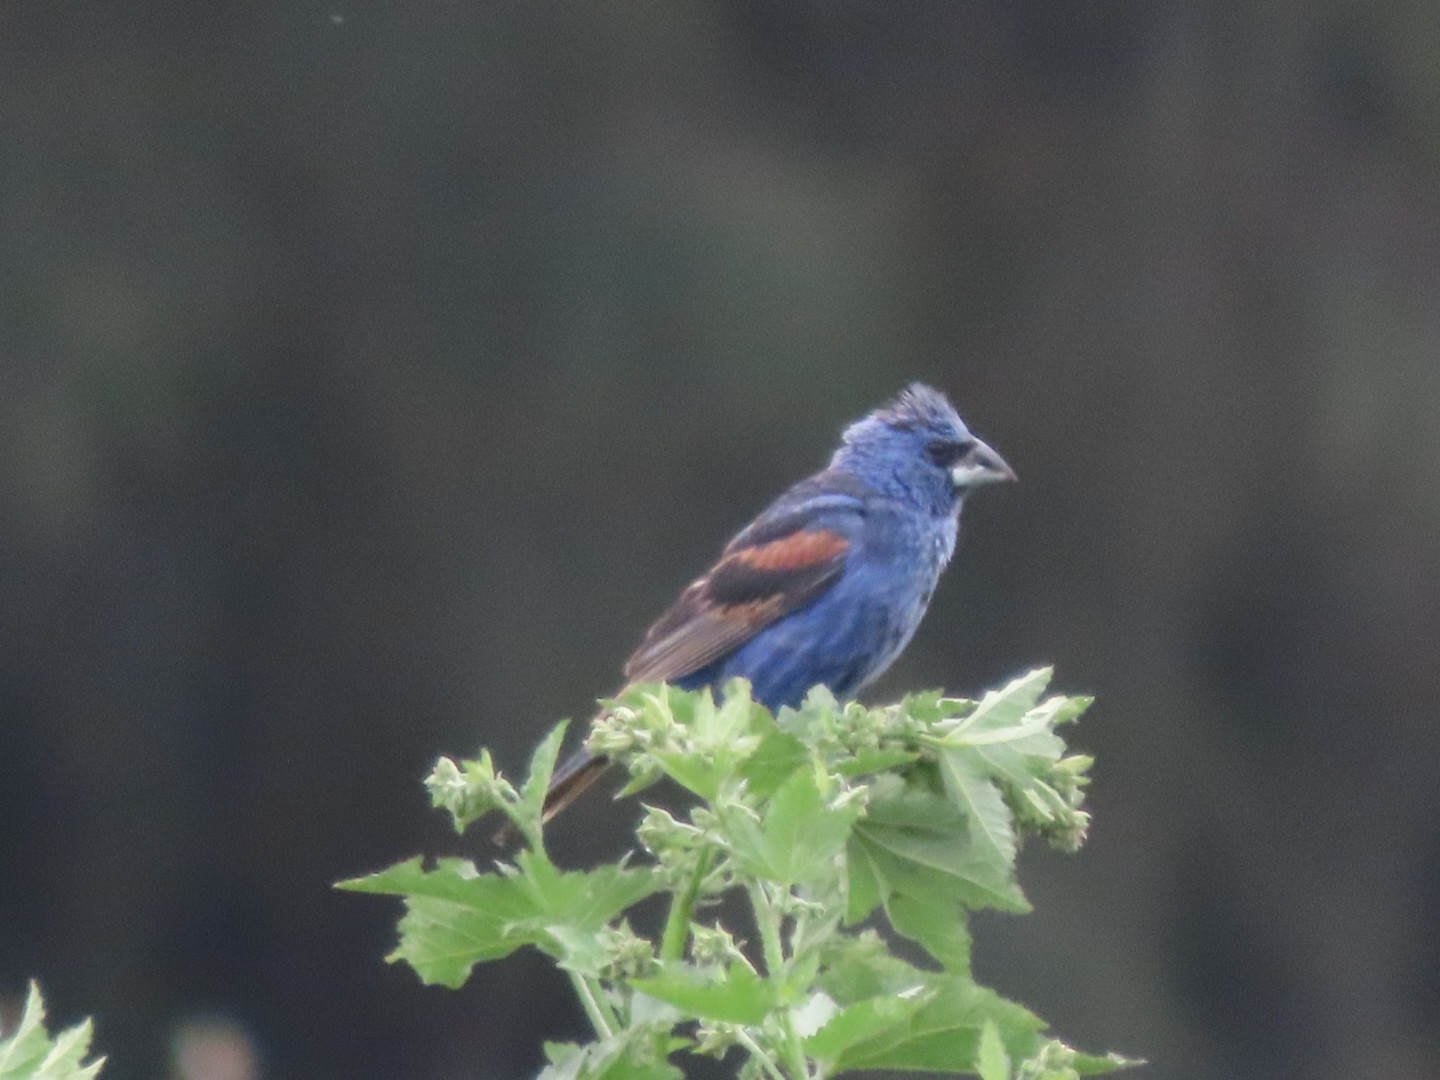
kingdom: Animalia
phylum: Chordata
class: Aves
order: Passeriformes
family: Cardinalidae
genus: Passerina
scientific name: Passerina caerulea
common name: Blue grosbeak
